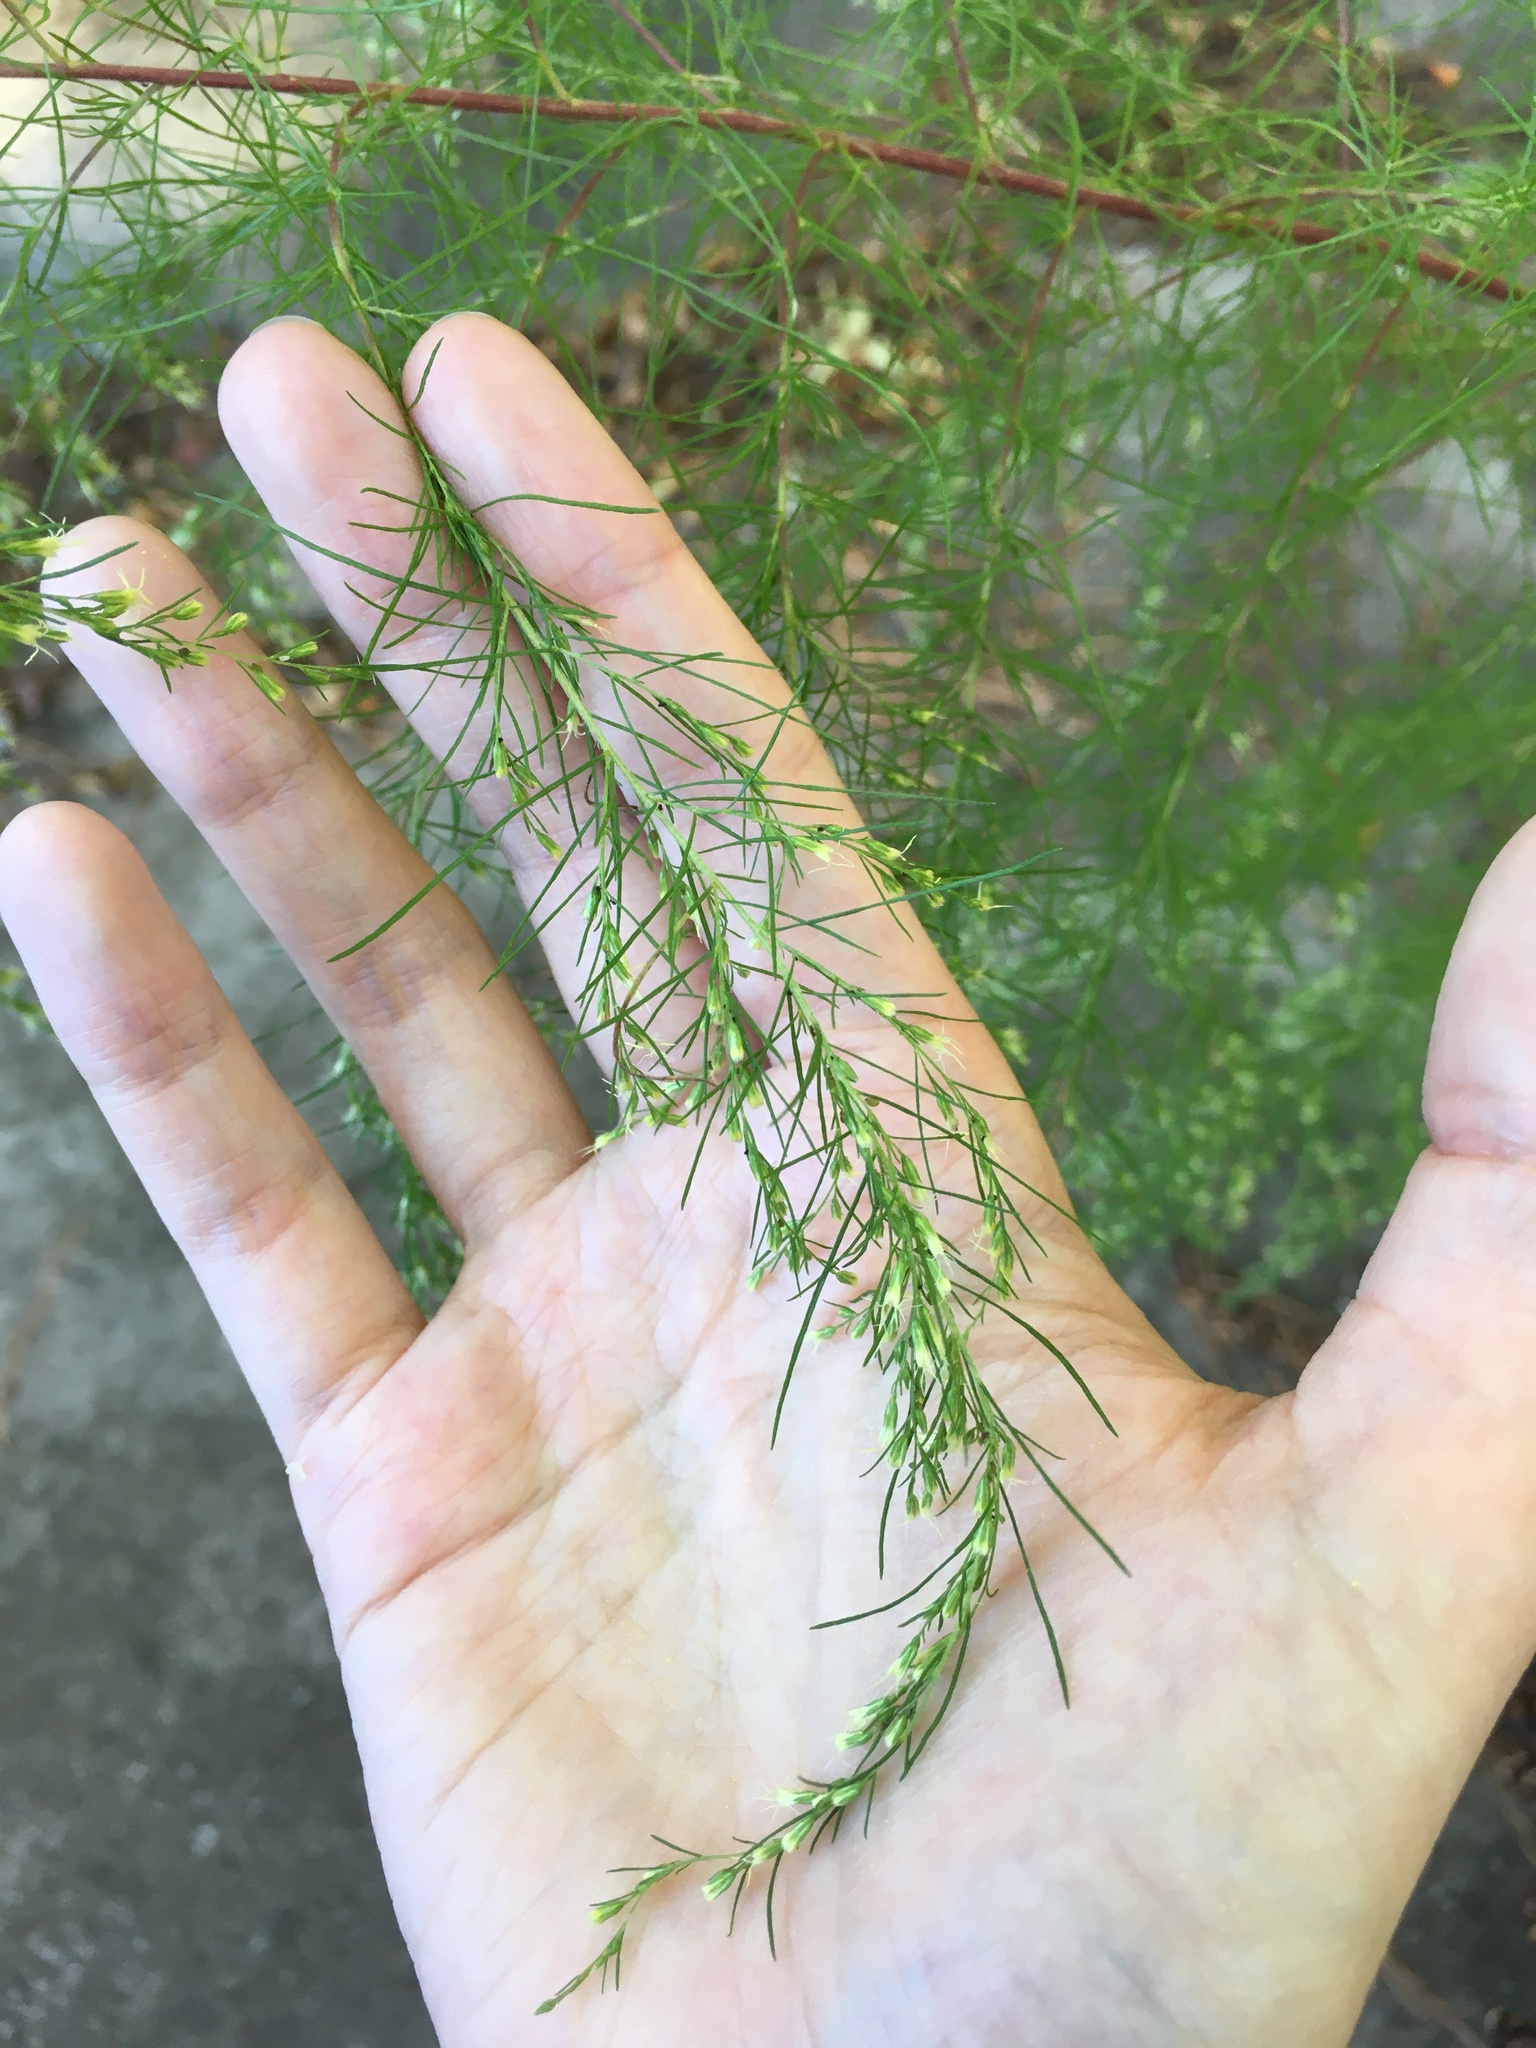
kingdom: Plantae
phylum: Tracheophyta
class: Magnoliopsida
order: Asterales
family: Asteraceae
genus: Eupatorium
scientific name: Eupatorium capillifolium
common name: Dog-fennel
